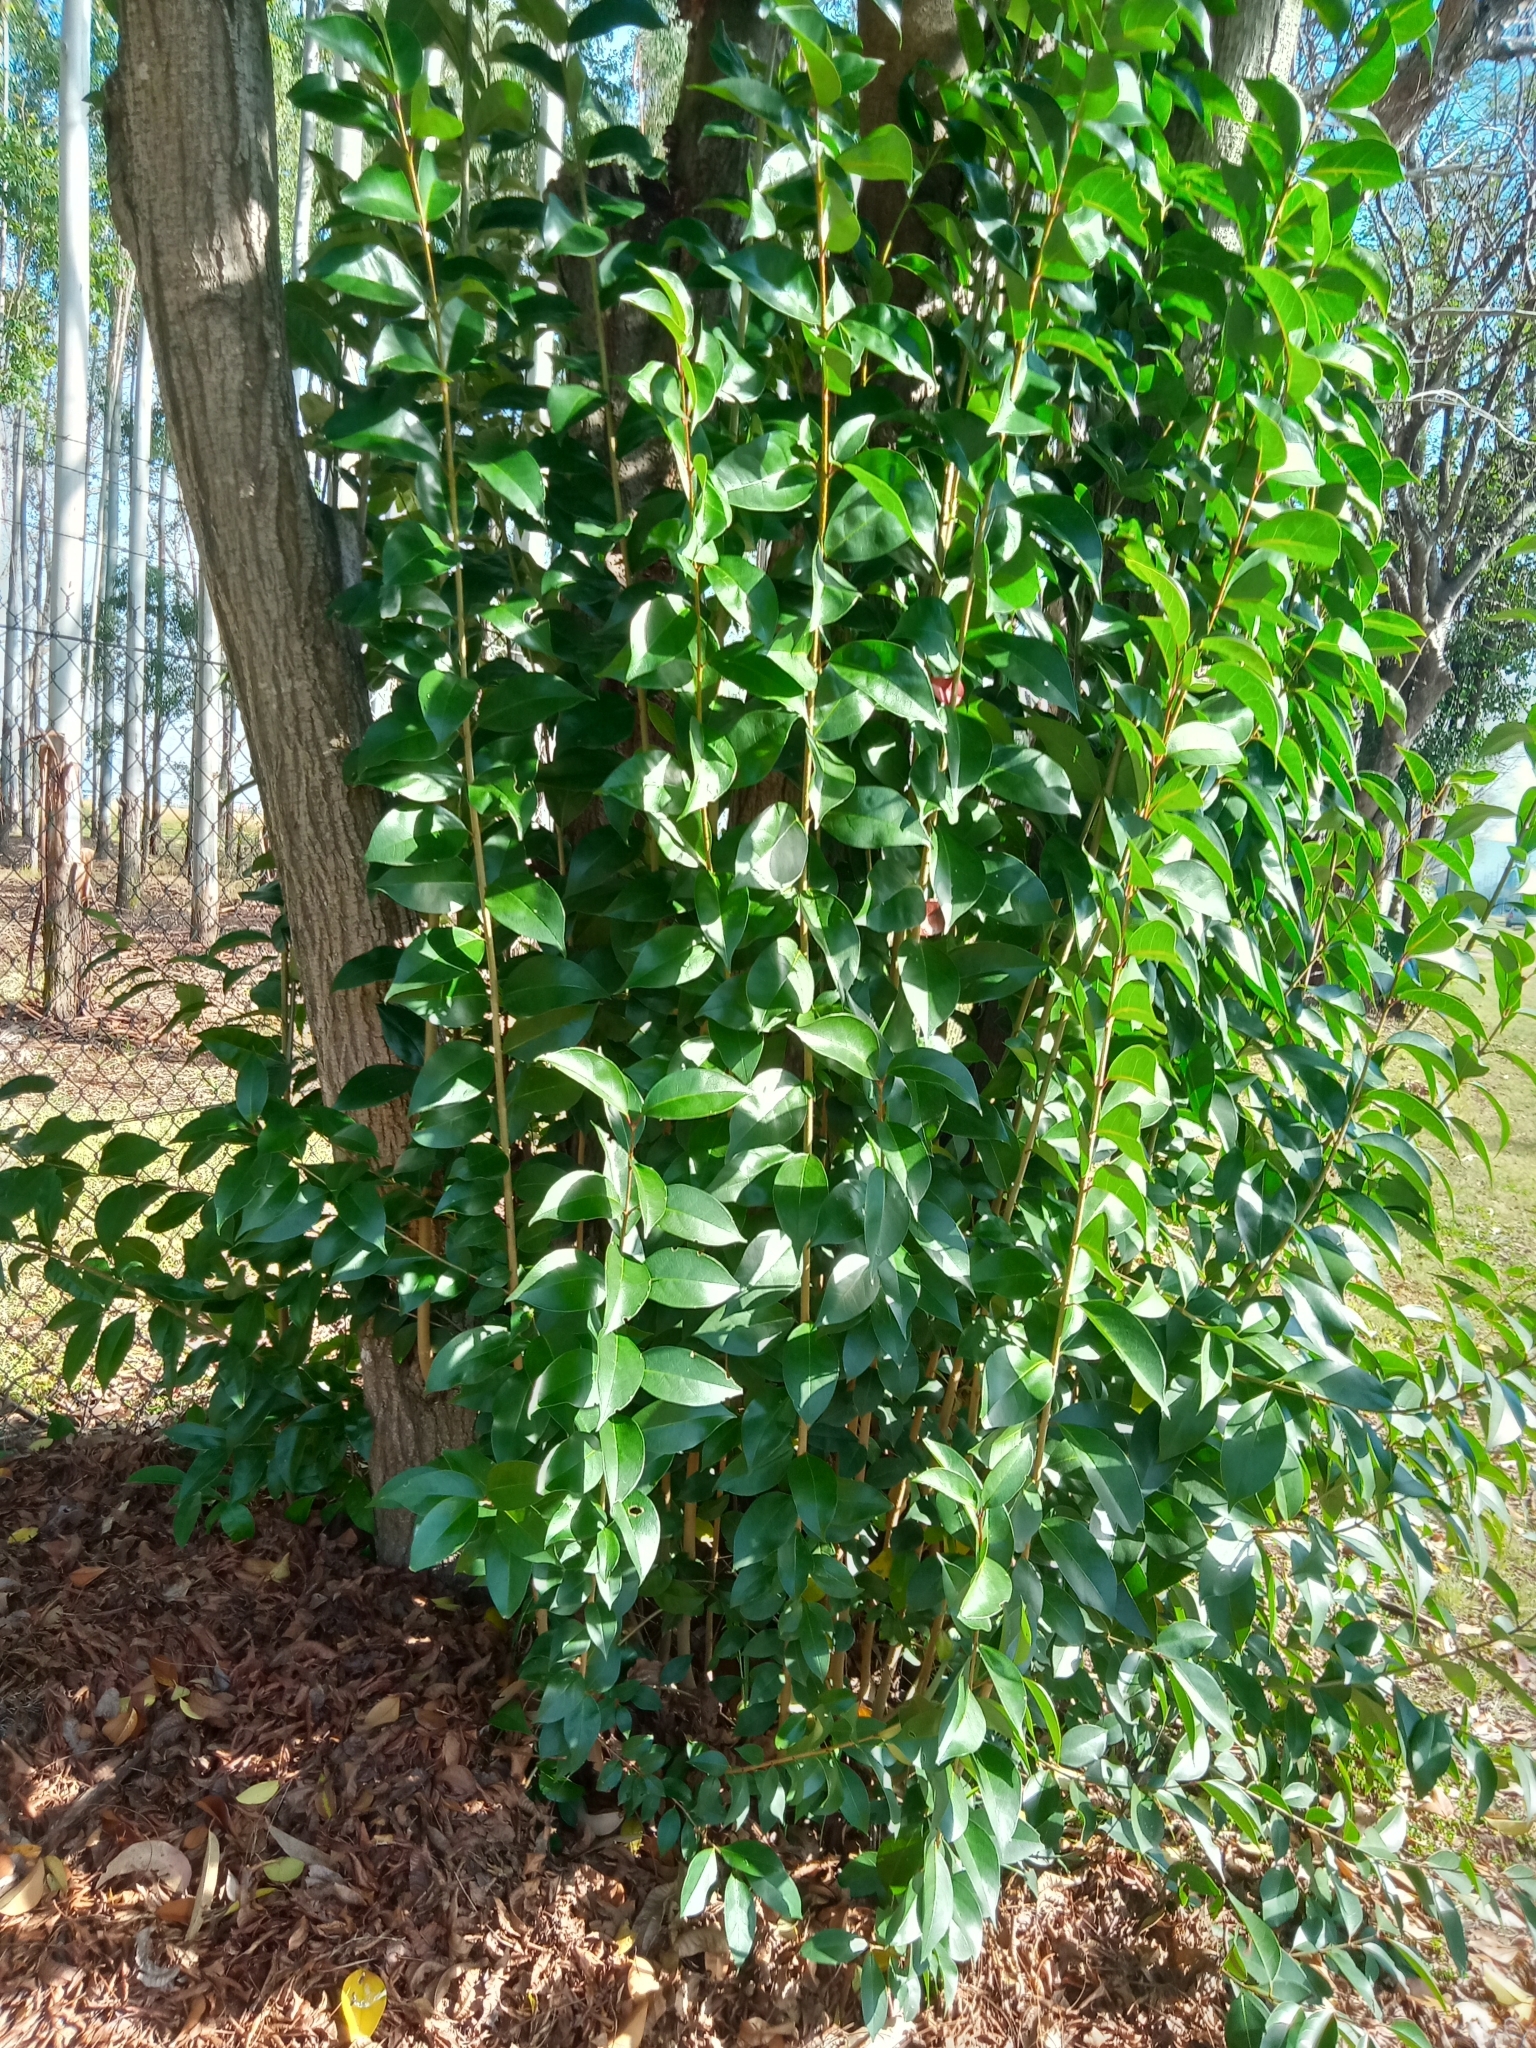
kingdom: Plantae
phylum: Tracheophyta
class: Magnoliopsida
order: Lamiales
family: Oleaceae
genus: Ligustrum
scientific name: Ligustrum lucidum
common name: Glossy privet
